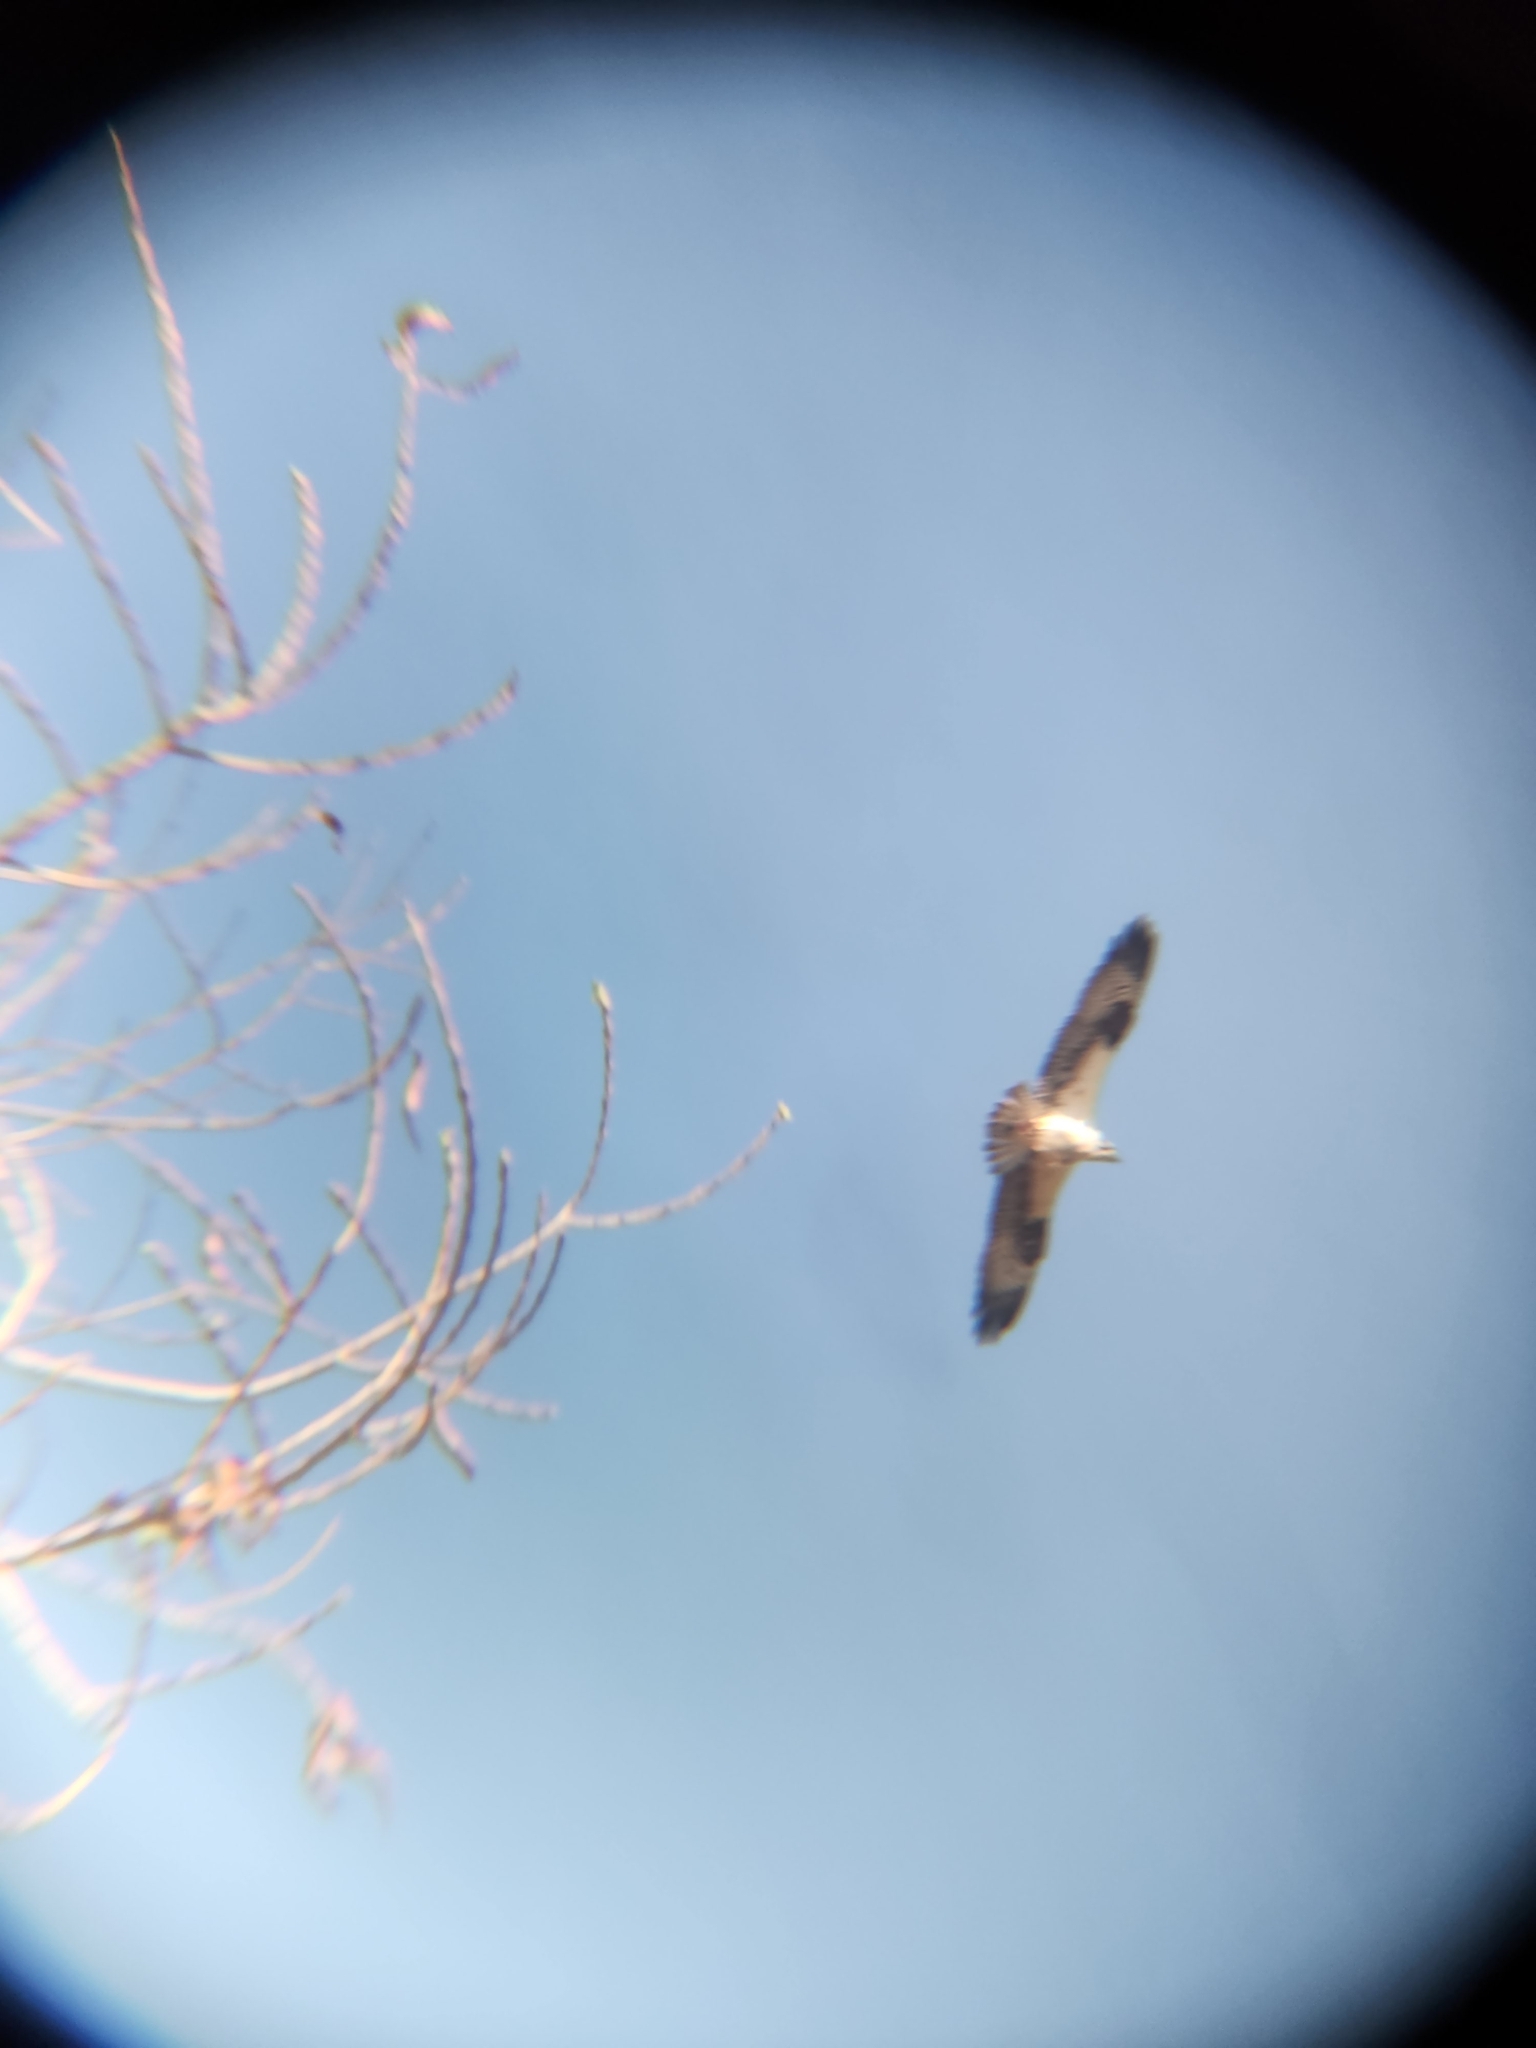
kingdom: Animalia
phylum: Chordata
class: Aves
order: Accipitriformes
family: Pandionidae
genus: Pandion
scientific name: Pandion haliaetus
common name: Osprey
